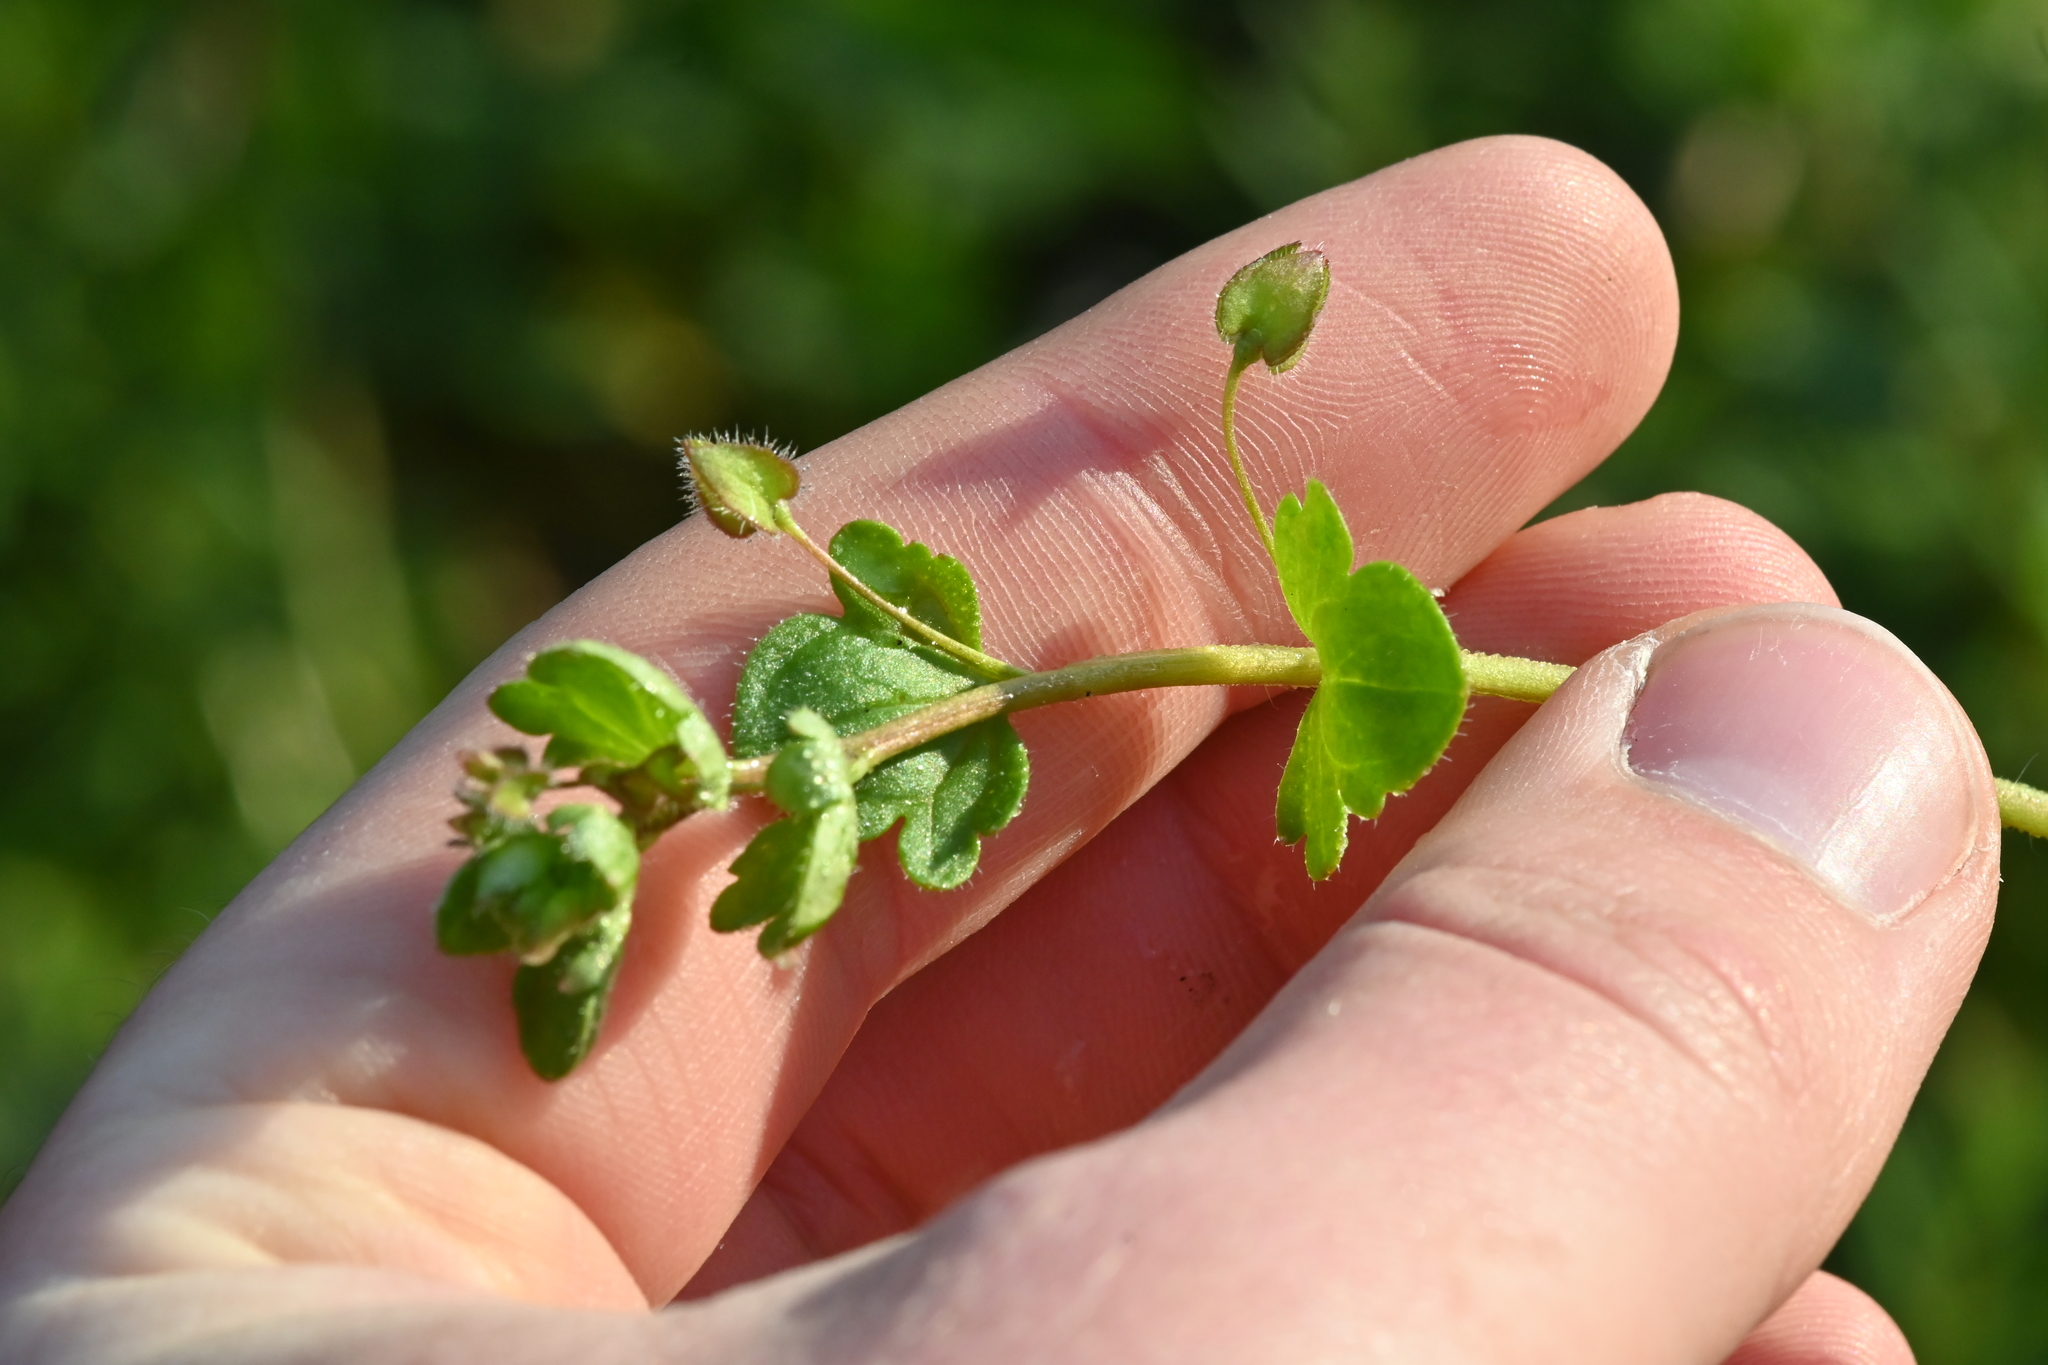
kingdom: Plantae
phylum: Tracheophyta
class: Magnoliopsida
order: Lamiales
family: Plantaginaceae
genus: Veronica
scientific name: Veronica hederifolia
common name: Ivy-leaved speedwell
